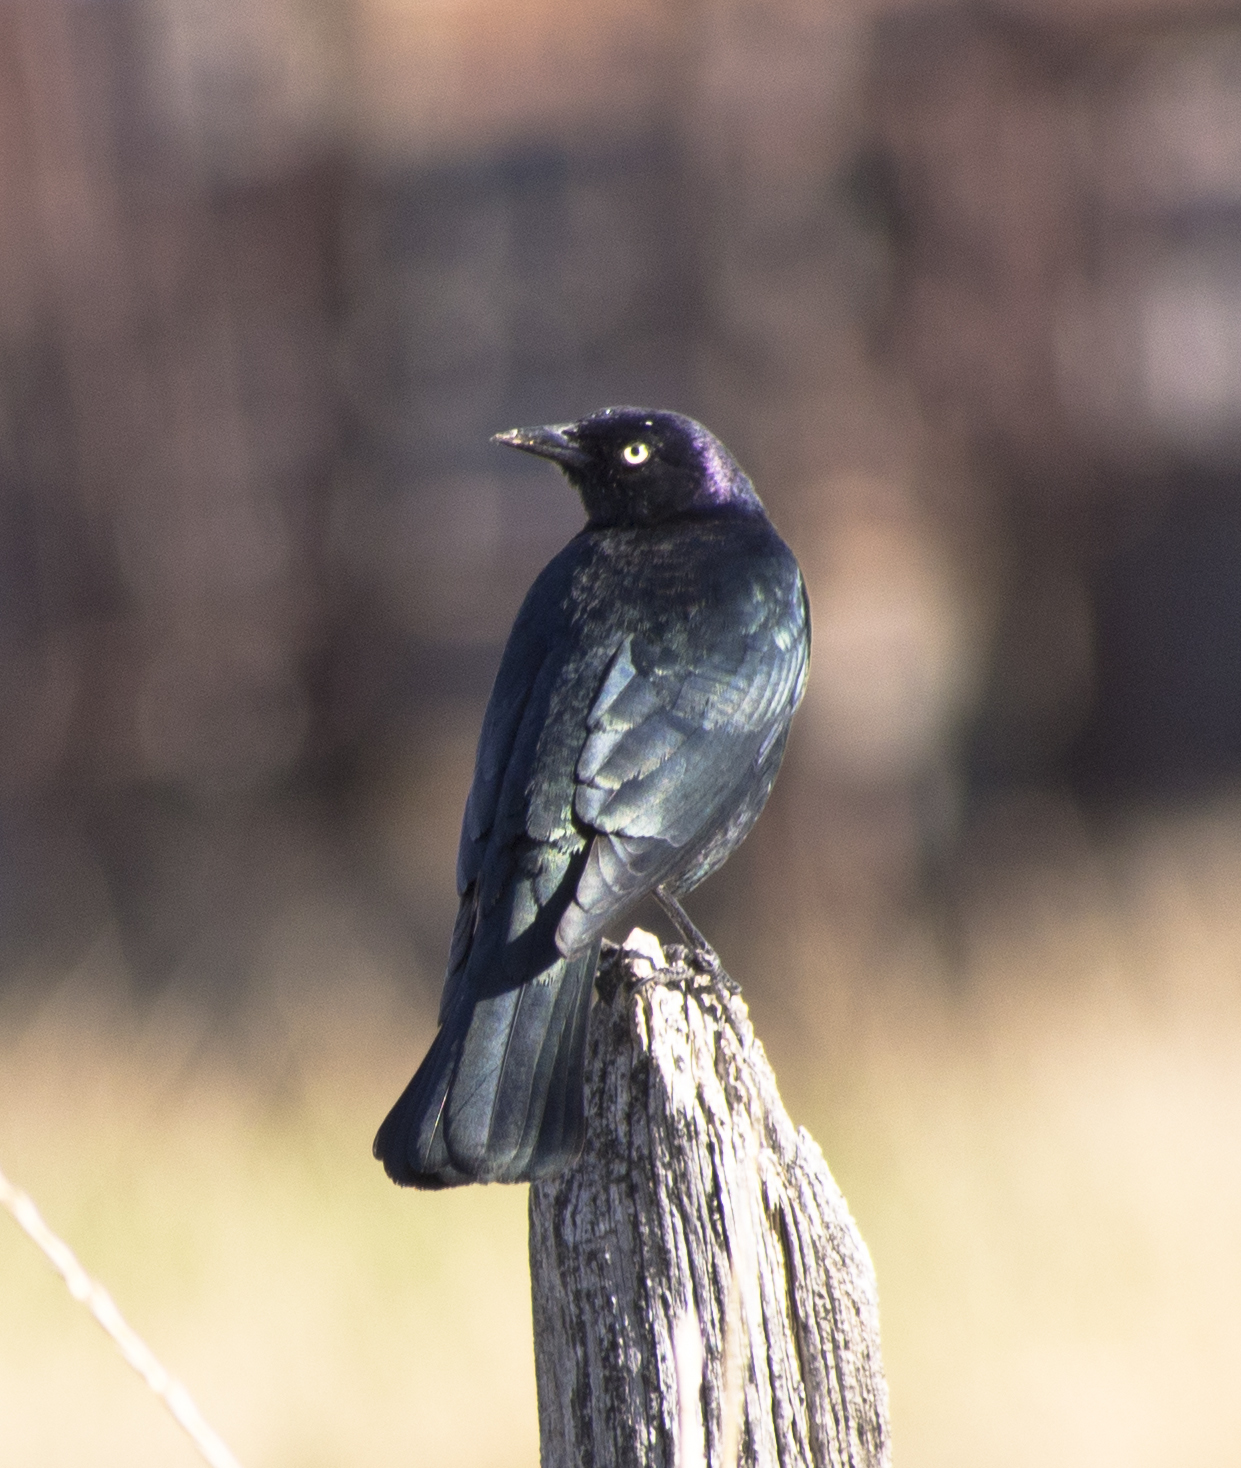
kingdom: Animalia
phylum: Chordata
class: Aves
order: Passeriformes
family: Icteridae
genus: Euphagus
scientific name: Euphagus cyanocephalus
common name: Brewer's blackbird
